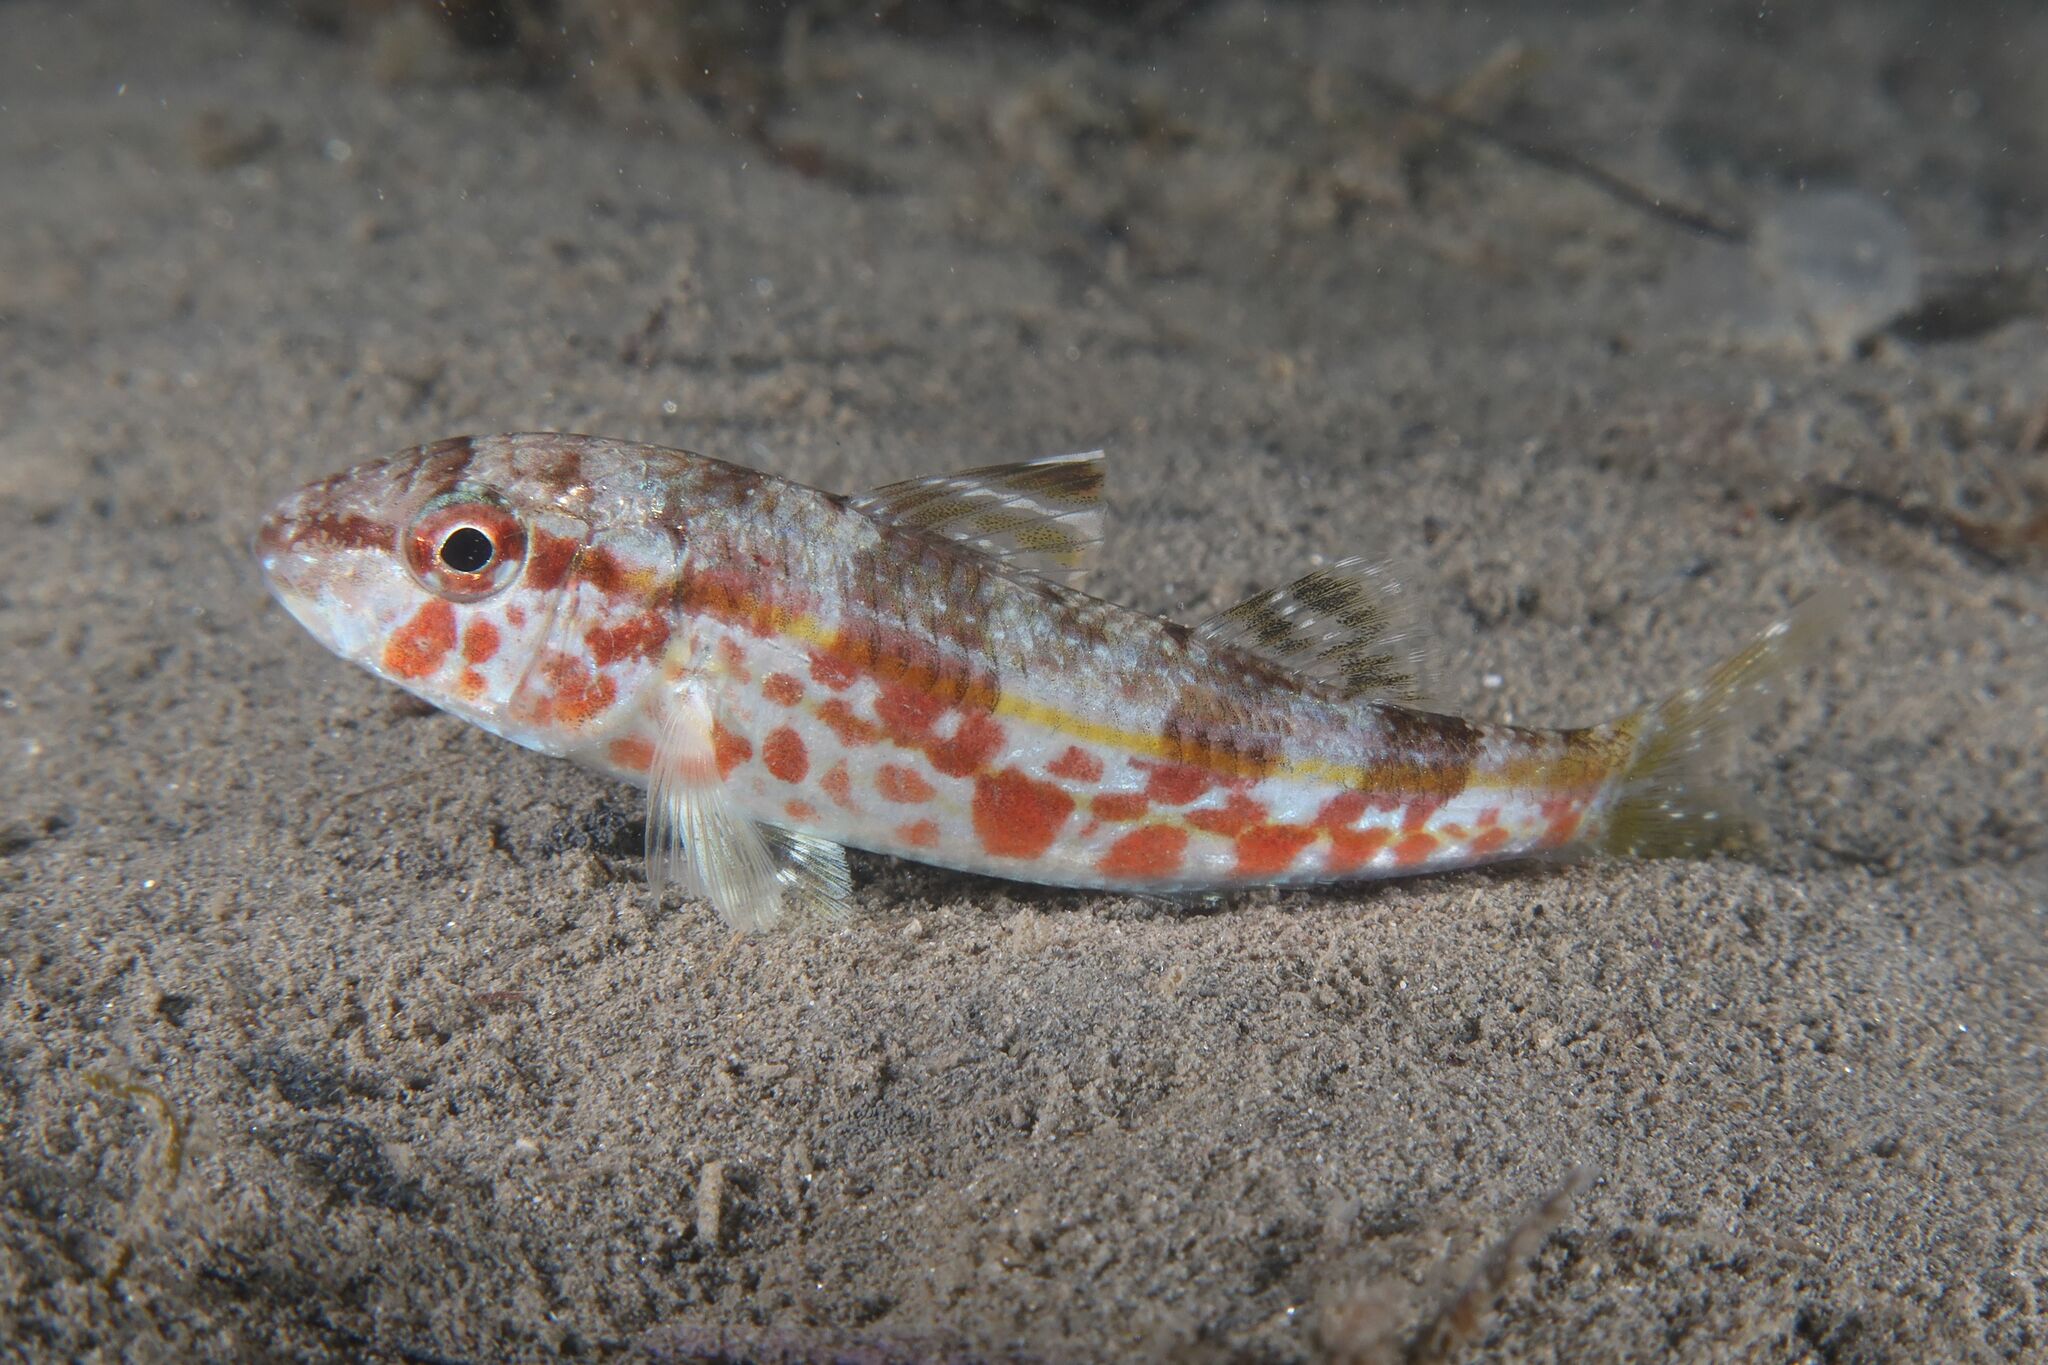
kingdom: Animalia
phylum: Chordata
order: Perciformes
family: Mullidae
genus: Mullus
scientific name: Mullus surmuletus
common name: Red mullet
